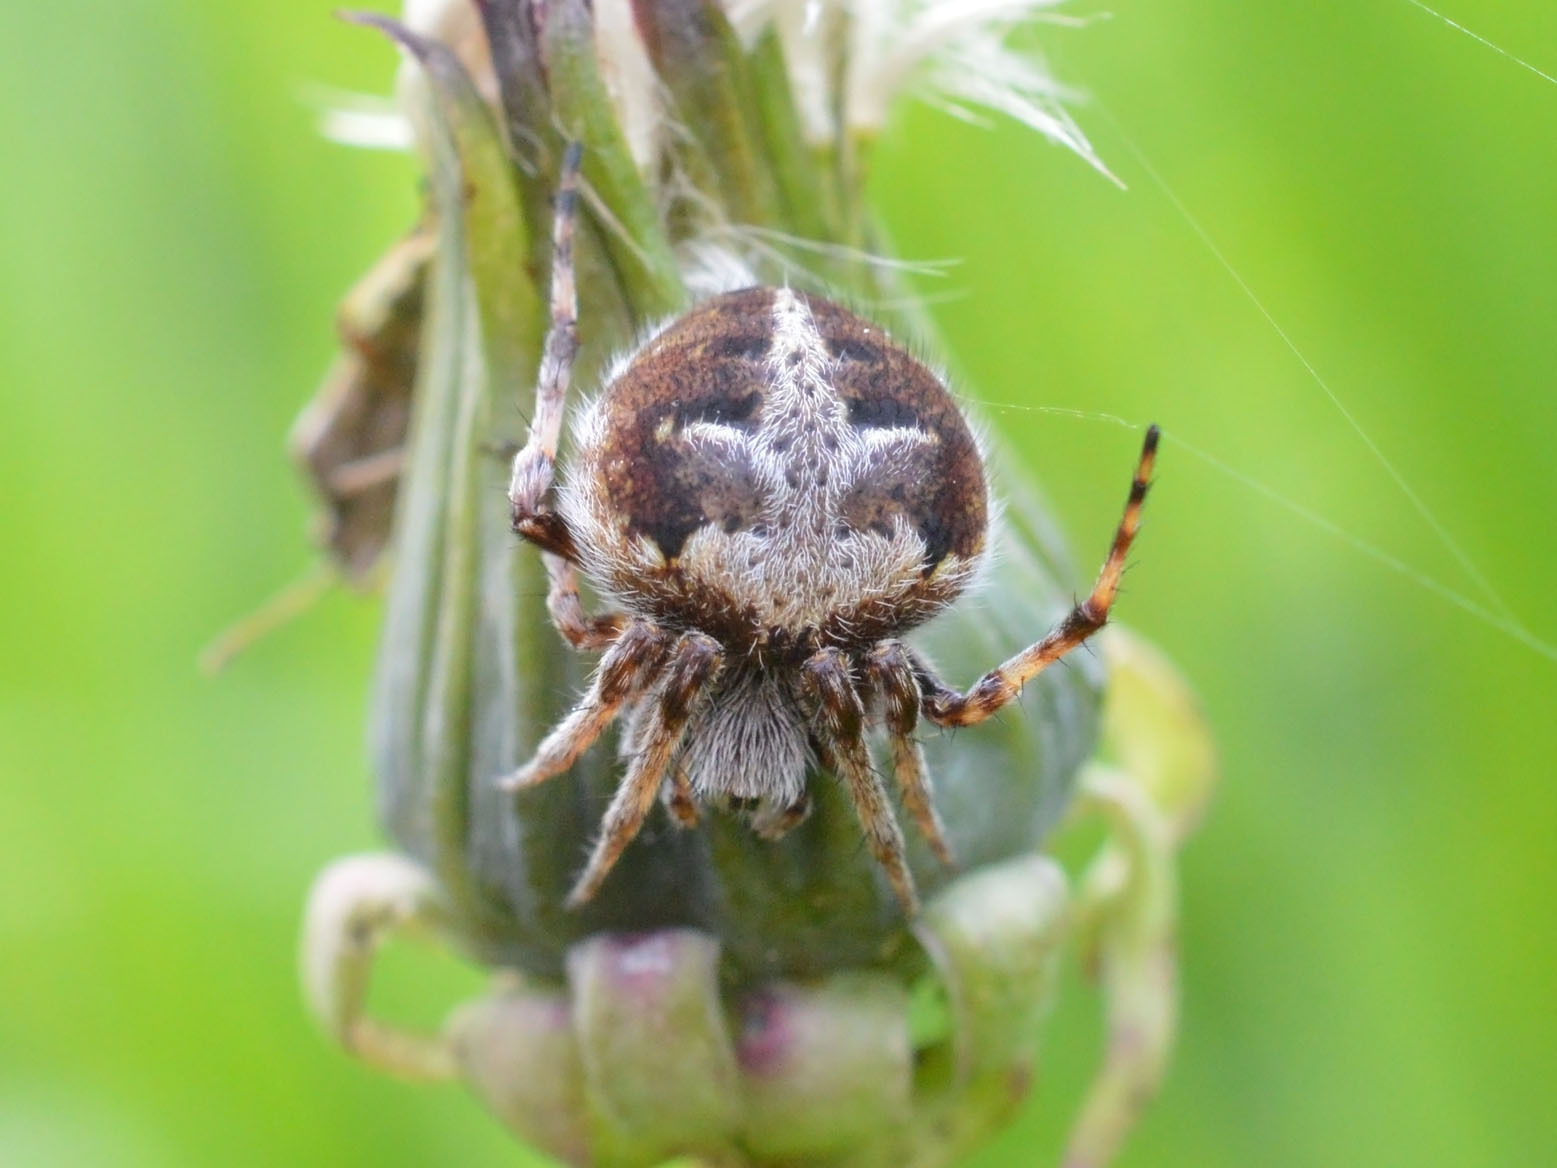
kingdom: Animalia
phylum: Arthropoda
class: Arachnida
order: Araneae
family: Araneidae
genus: Agalenatea
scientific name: Agalenatea redii
